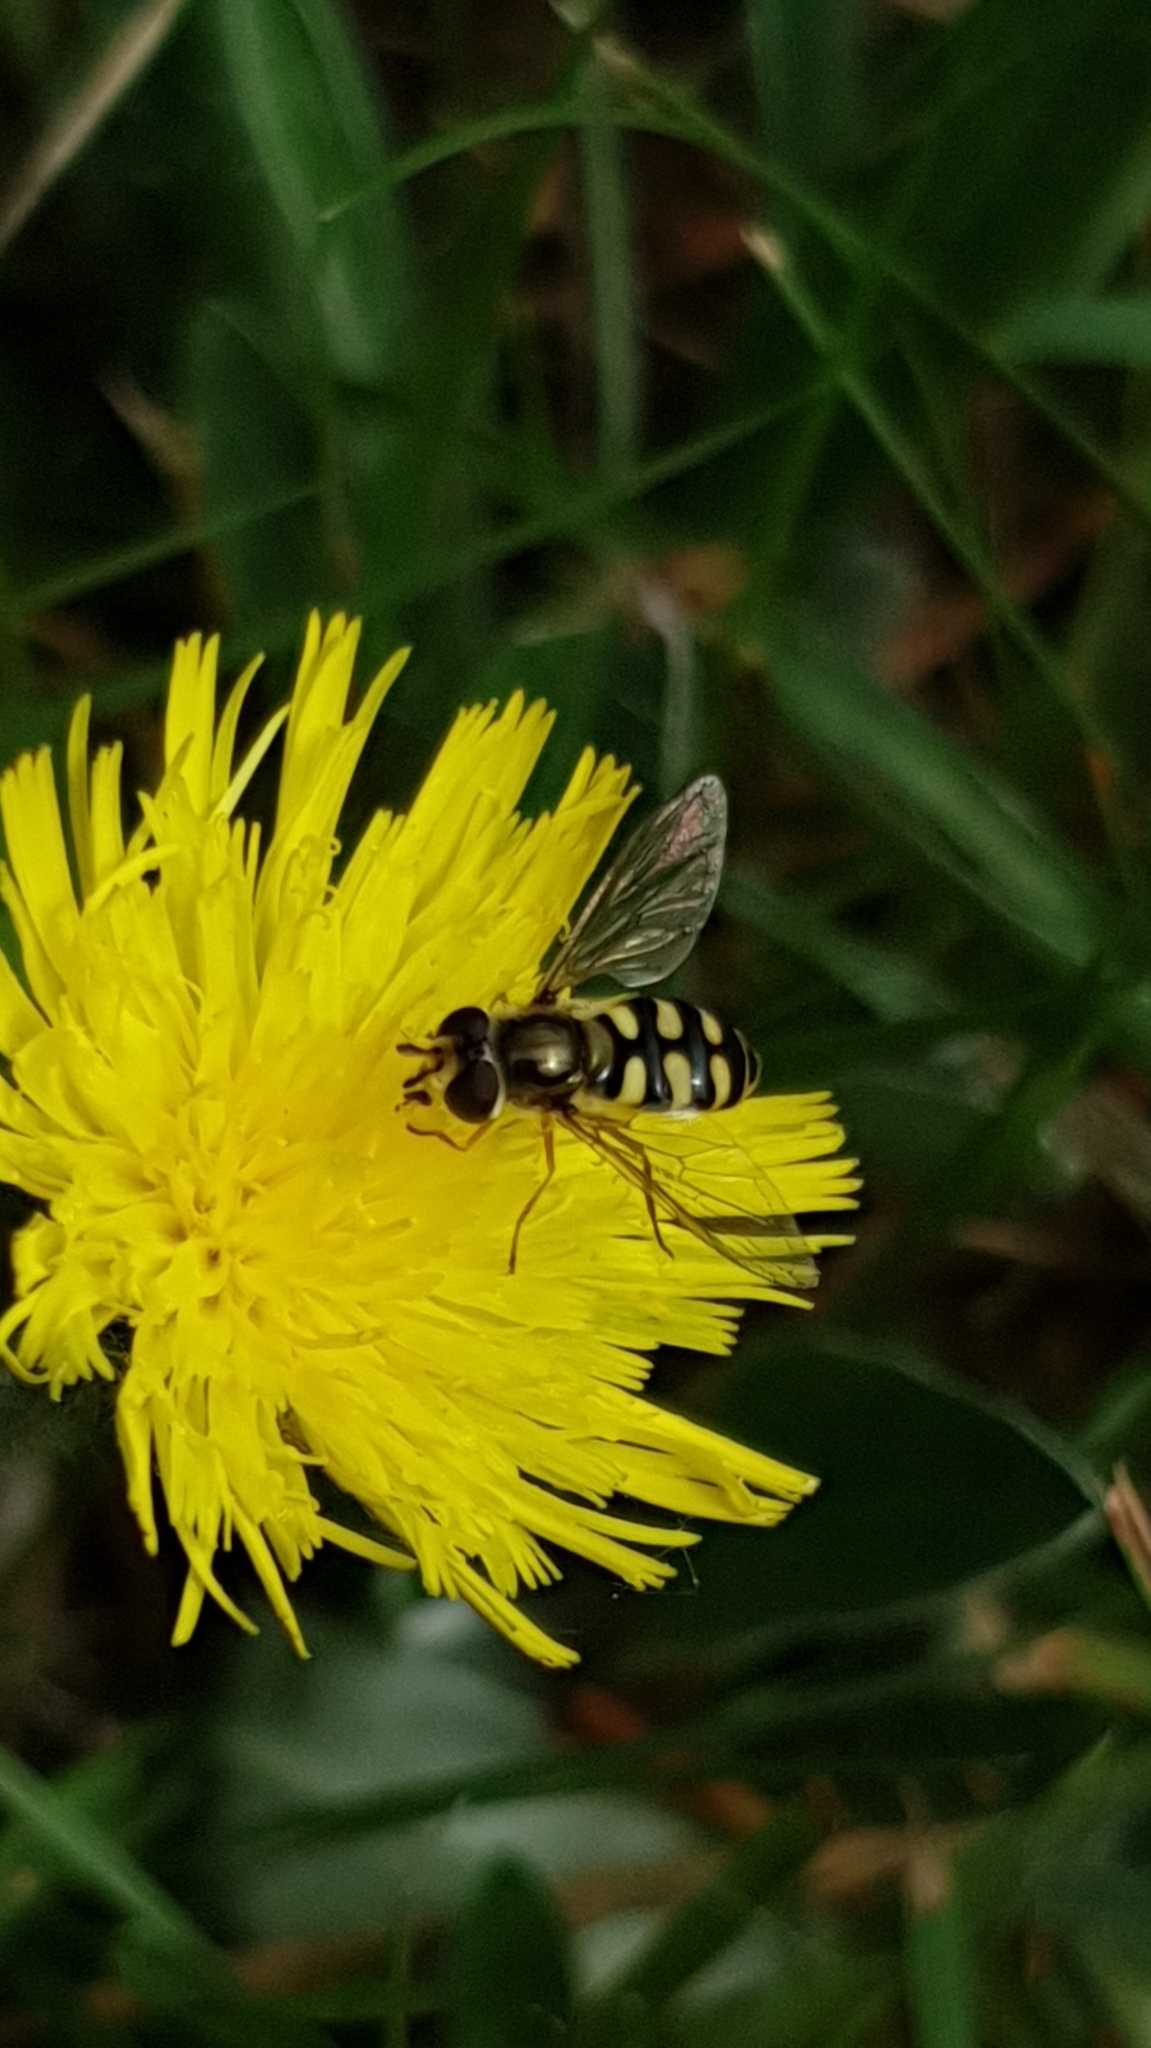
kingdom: Animalia
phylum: Arthropoda
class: Insecta
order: Diptera
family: Syrphidae
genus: Eupeodes
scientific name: Eupeodes corollae
